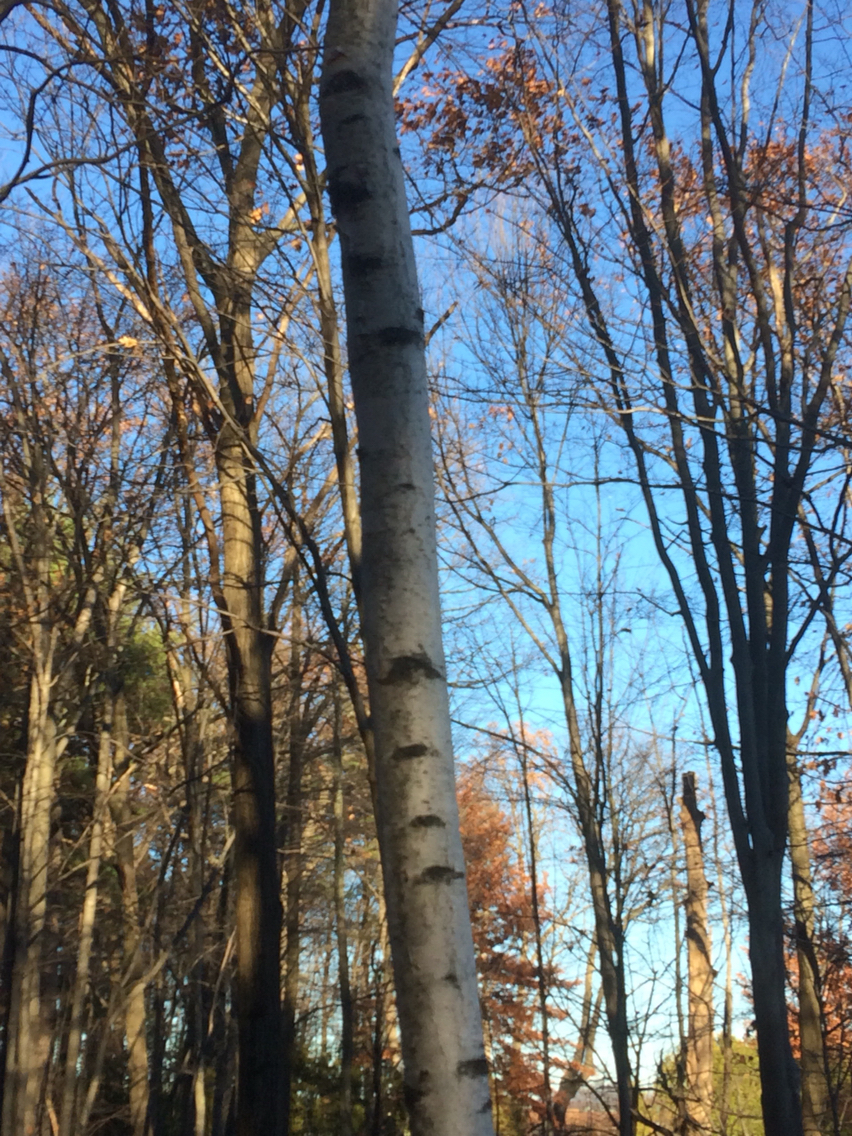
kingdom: Plantae
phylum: Tracheophyta
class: Magnoliopsida
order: Fagales
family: Betulaceae
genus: Betula
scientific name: Betula papyrifera
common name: Paper birch
